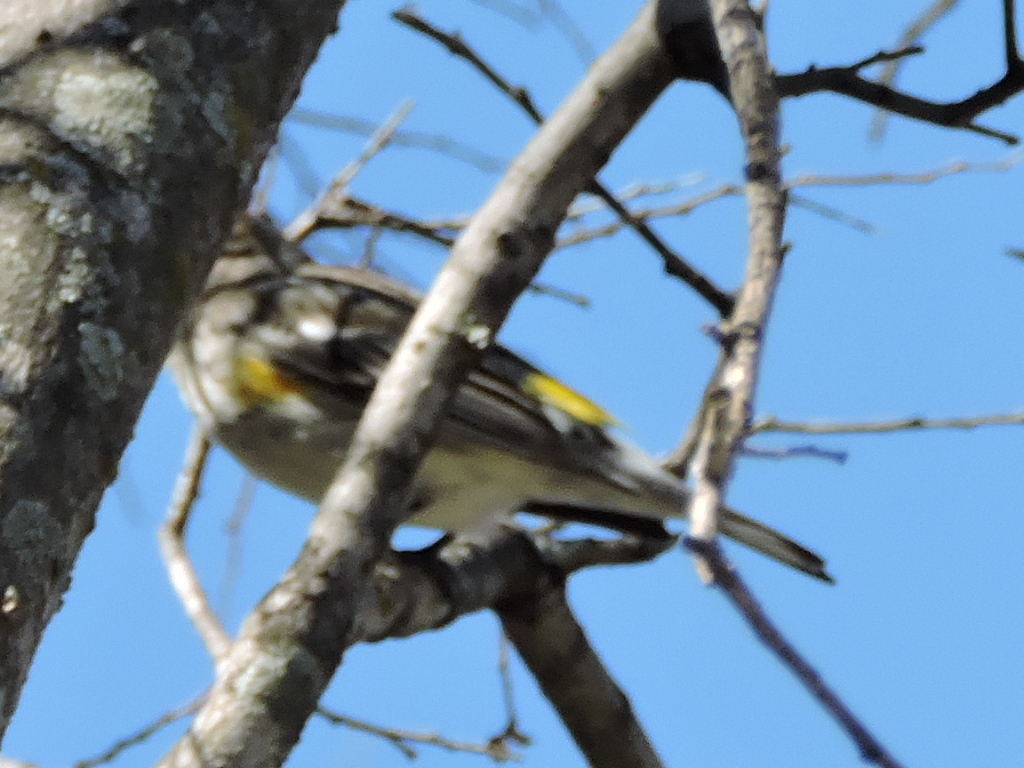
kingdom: Animalia
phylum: Chordata
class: Aves
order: Passeriformes
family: Parulidae
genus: Setophaga
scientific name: Setophaga coronata
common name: Myrtle warbler
